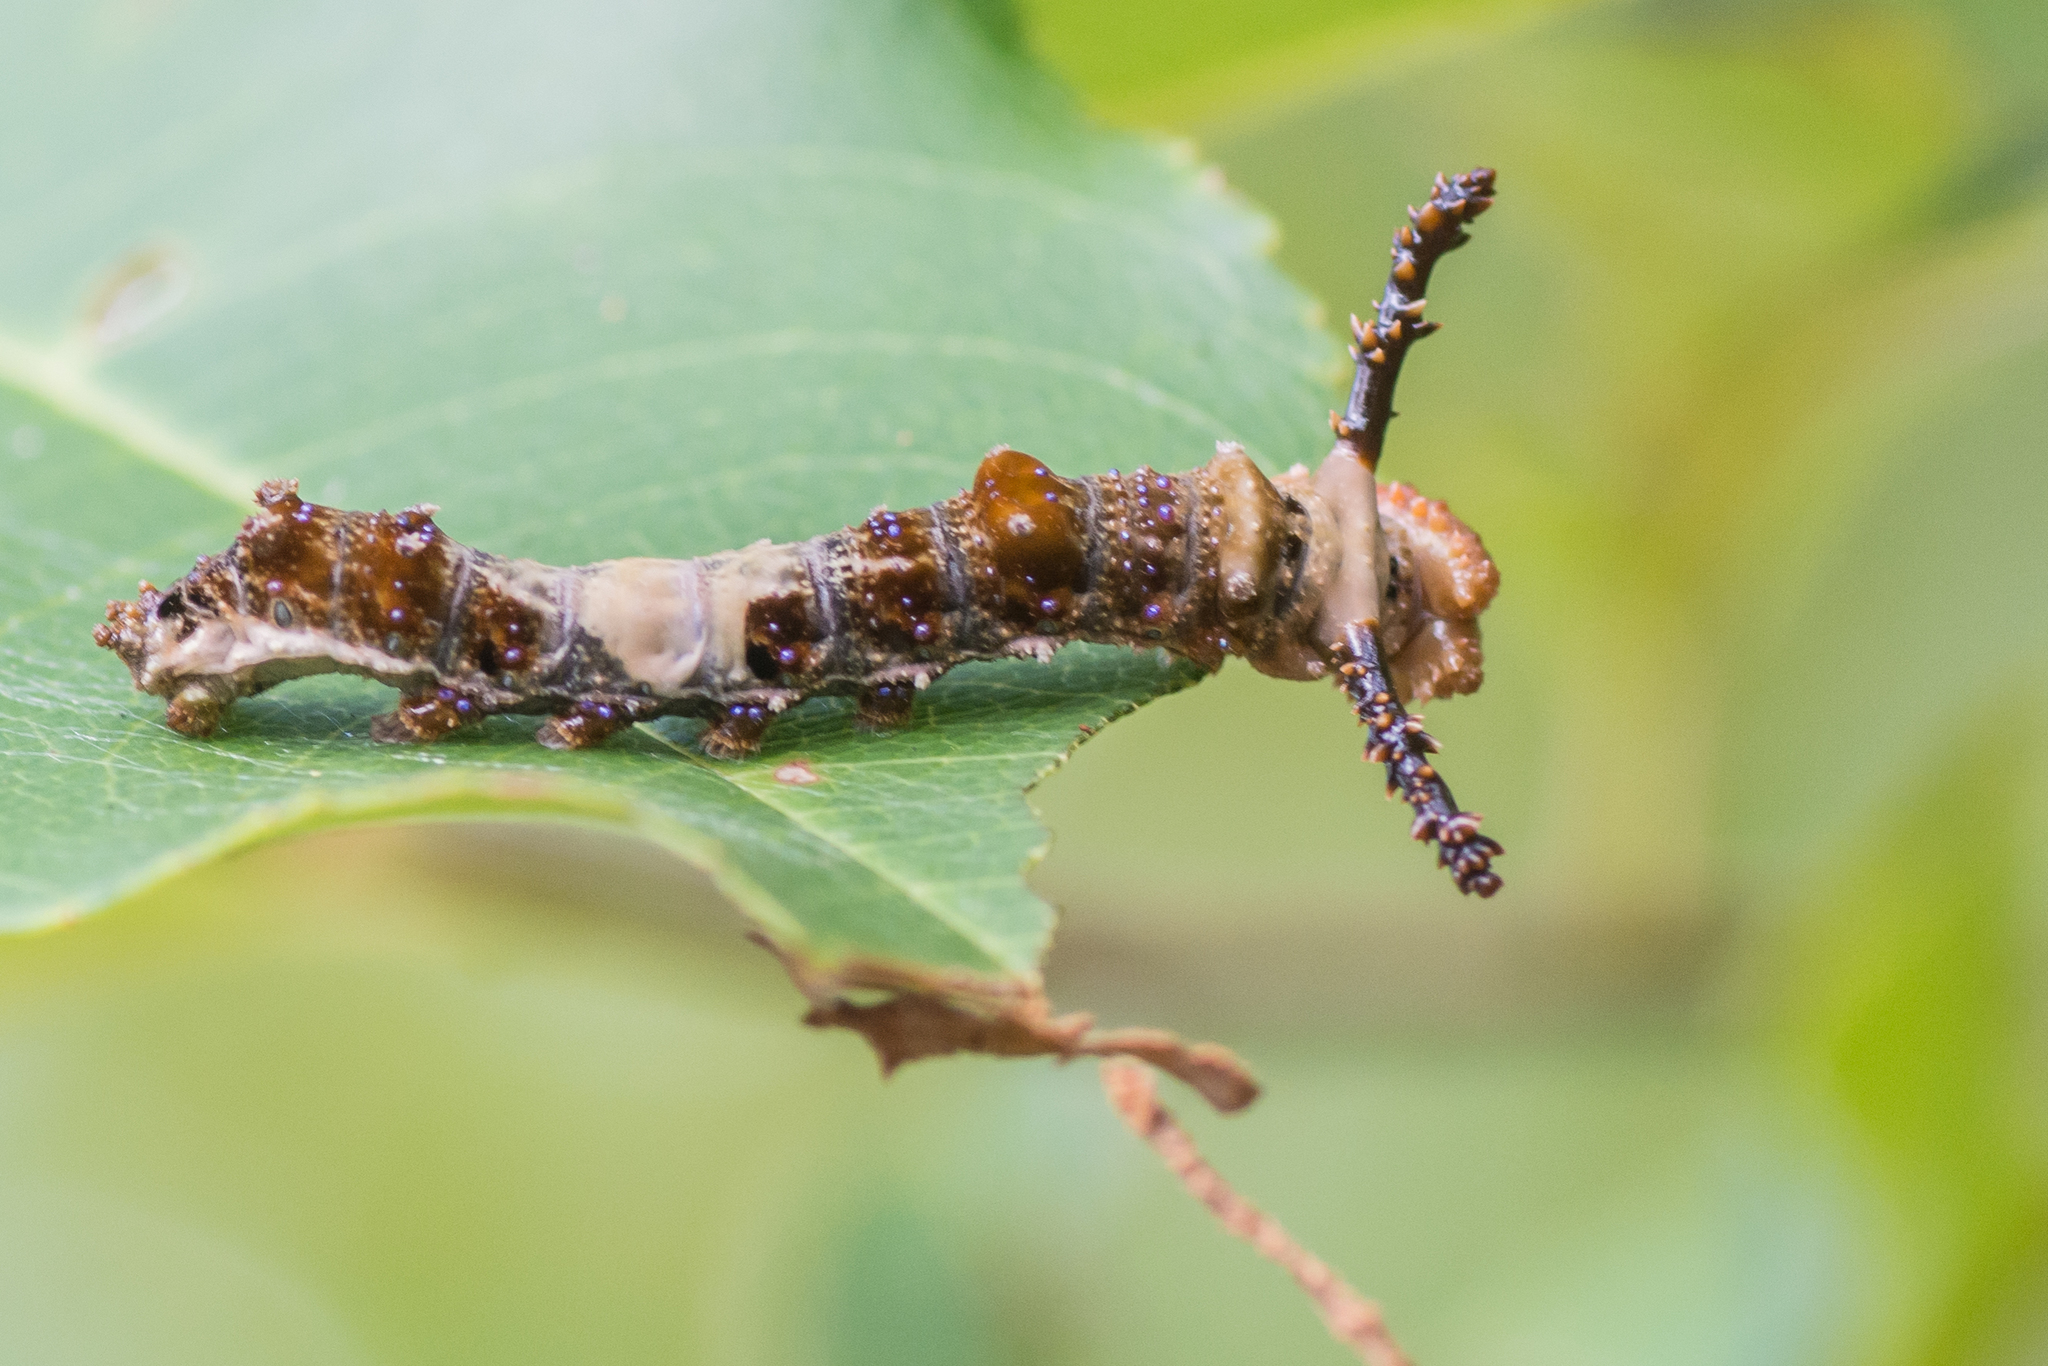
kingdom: Animalia
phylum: Arthropoda
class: Insecta
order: Lepidoptera
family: Nymphalidae
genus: Limenitis
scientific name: Limenitis arthemis
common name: Red-spotted admiral
